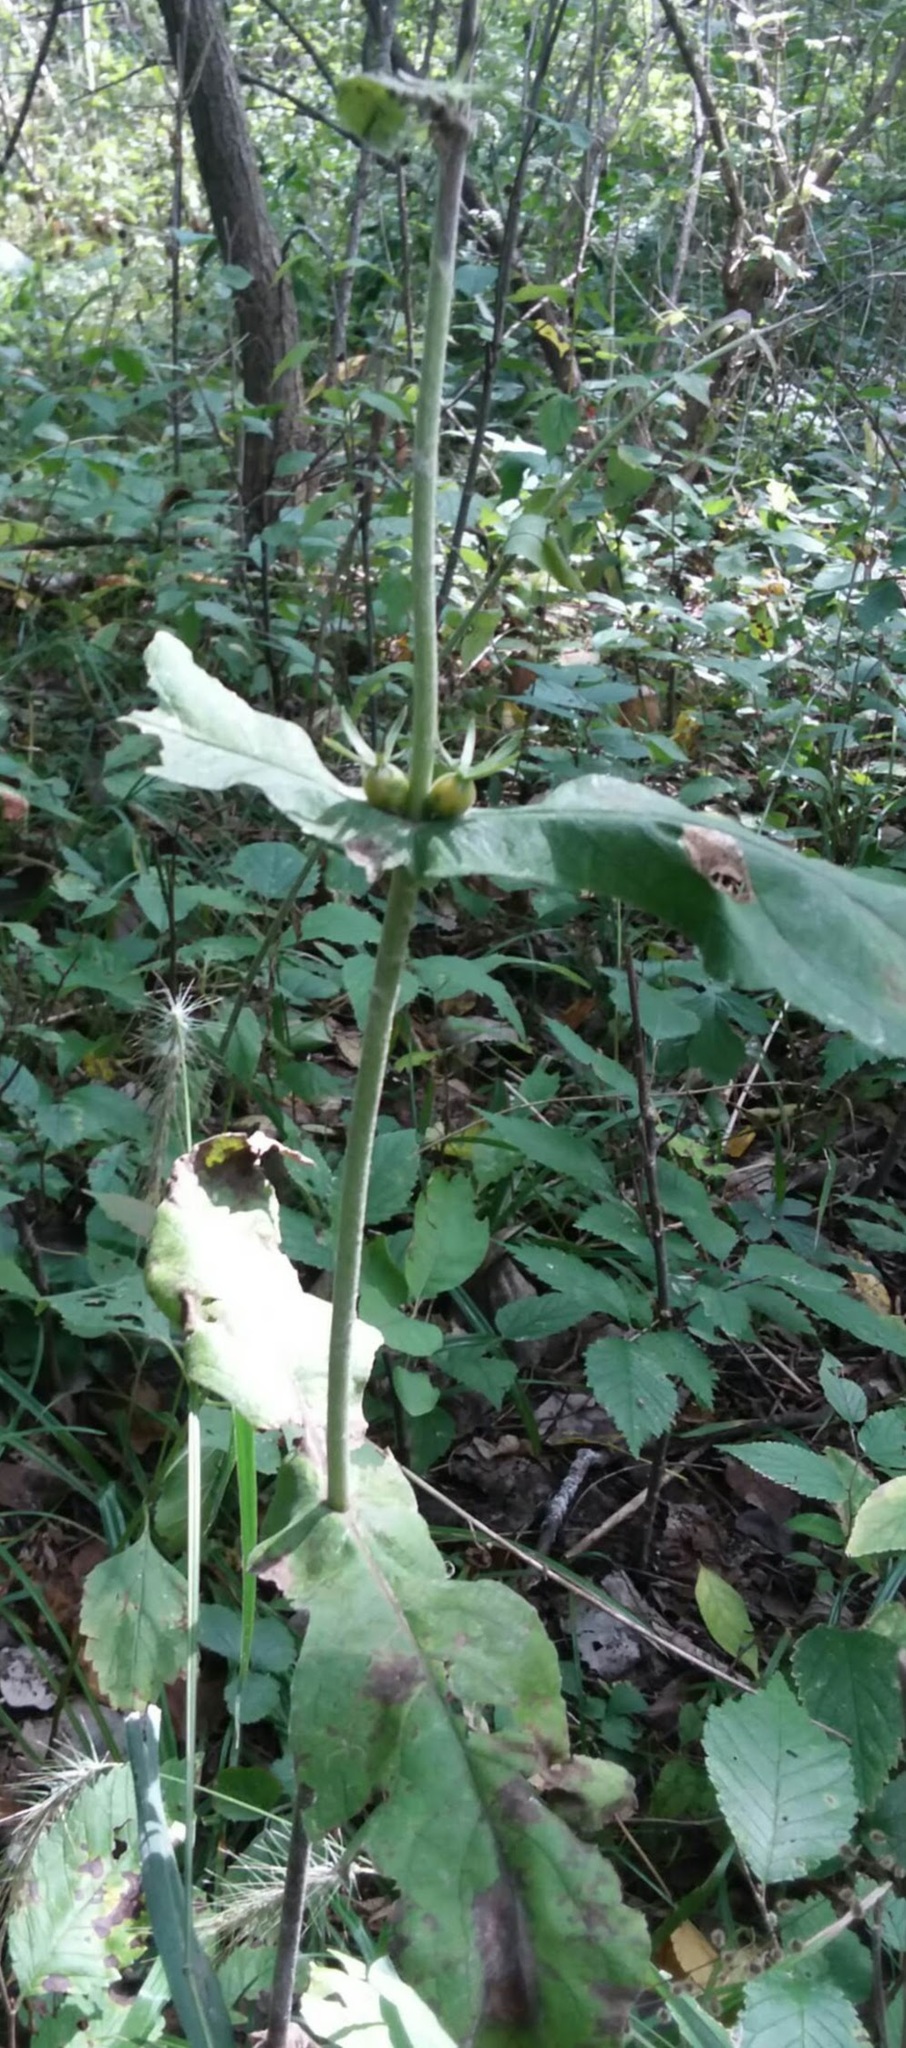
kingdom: Plantae
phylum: Tracheophyta
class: Magnoliopsida
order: Dipsacales
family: Caprifoliaceae
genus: Triosteum
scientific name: Triosteum perfoliatum
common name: Common horse-gentian
